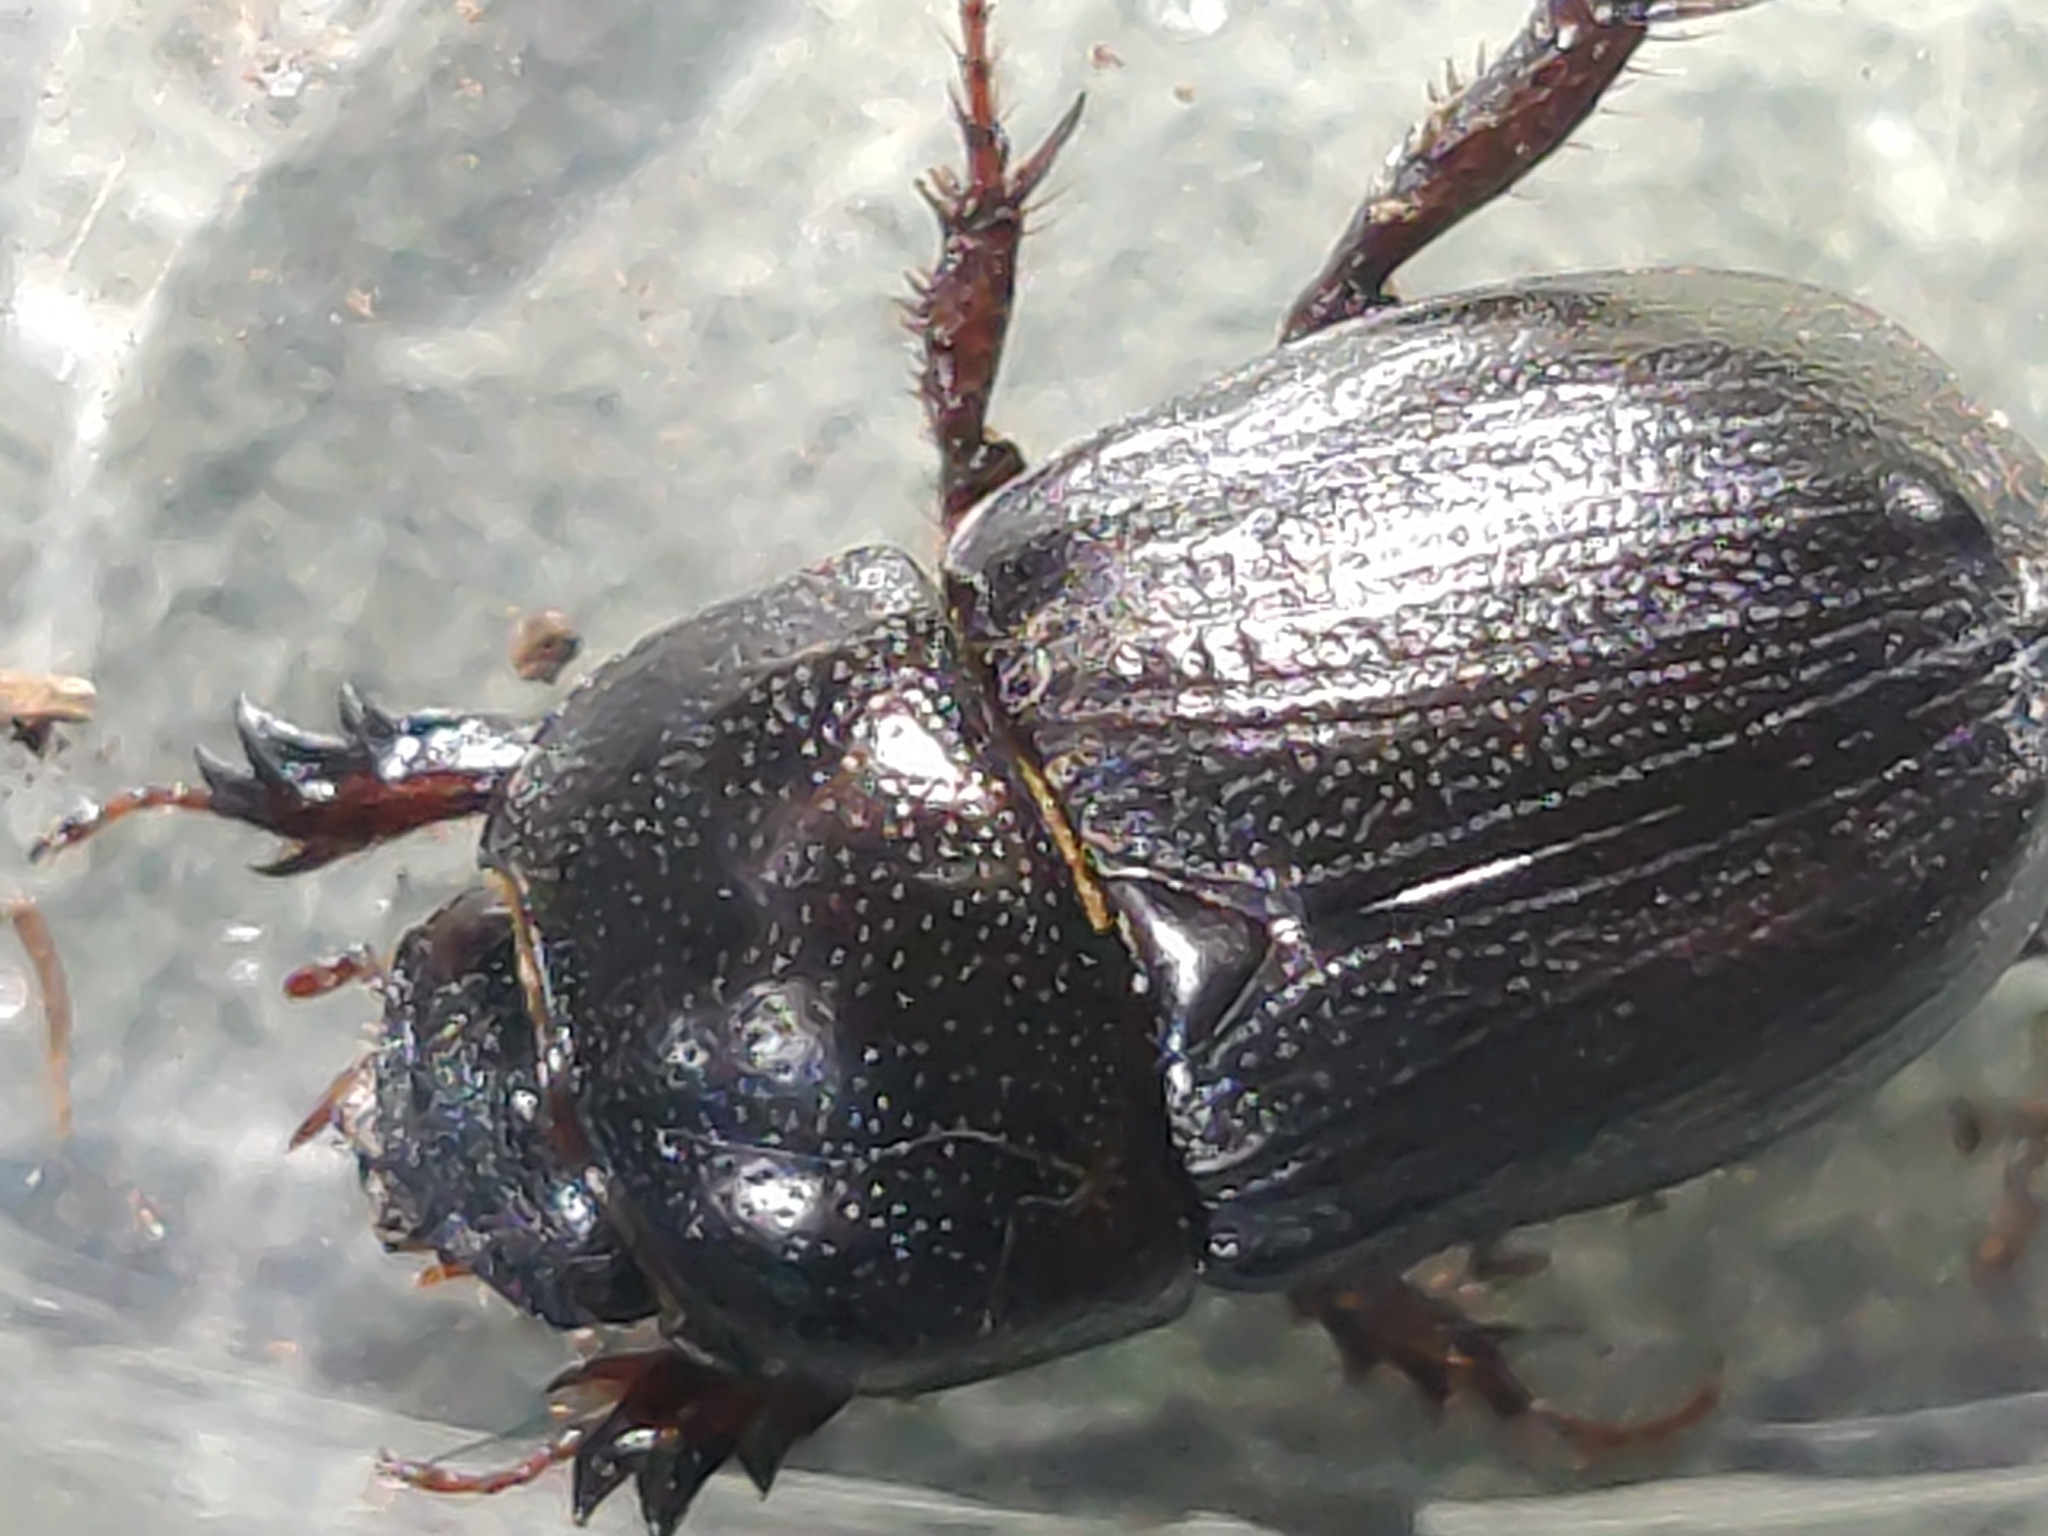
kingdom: Animalia
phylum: Arthropoda
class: Insecta
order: Coleoptera
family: Scarabaeidae
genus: Euetheola
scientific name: Euetheola humilis
